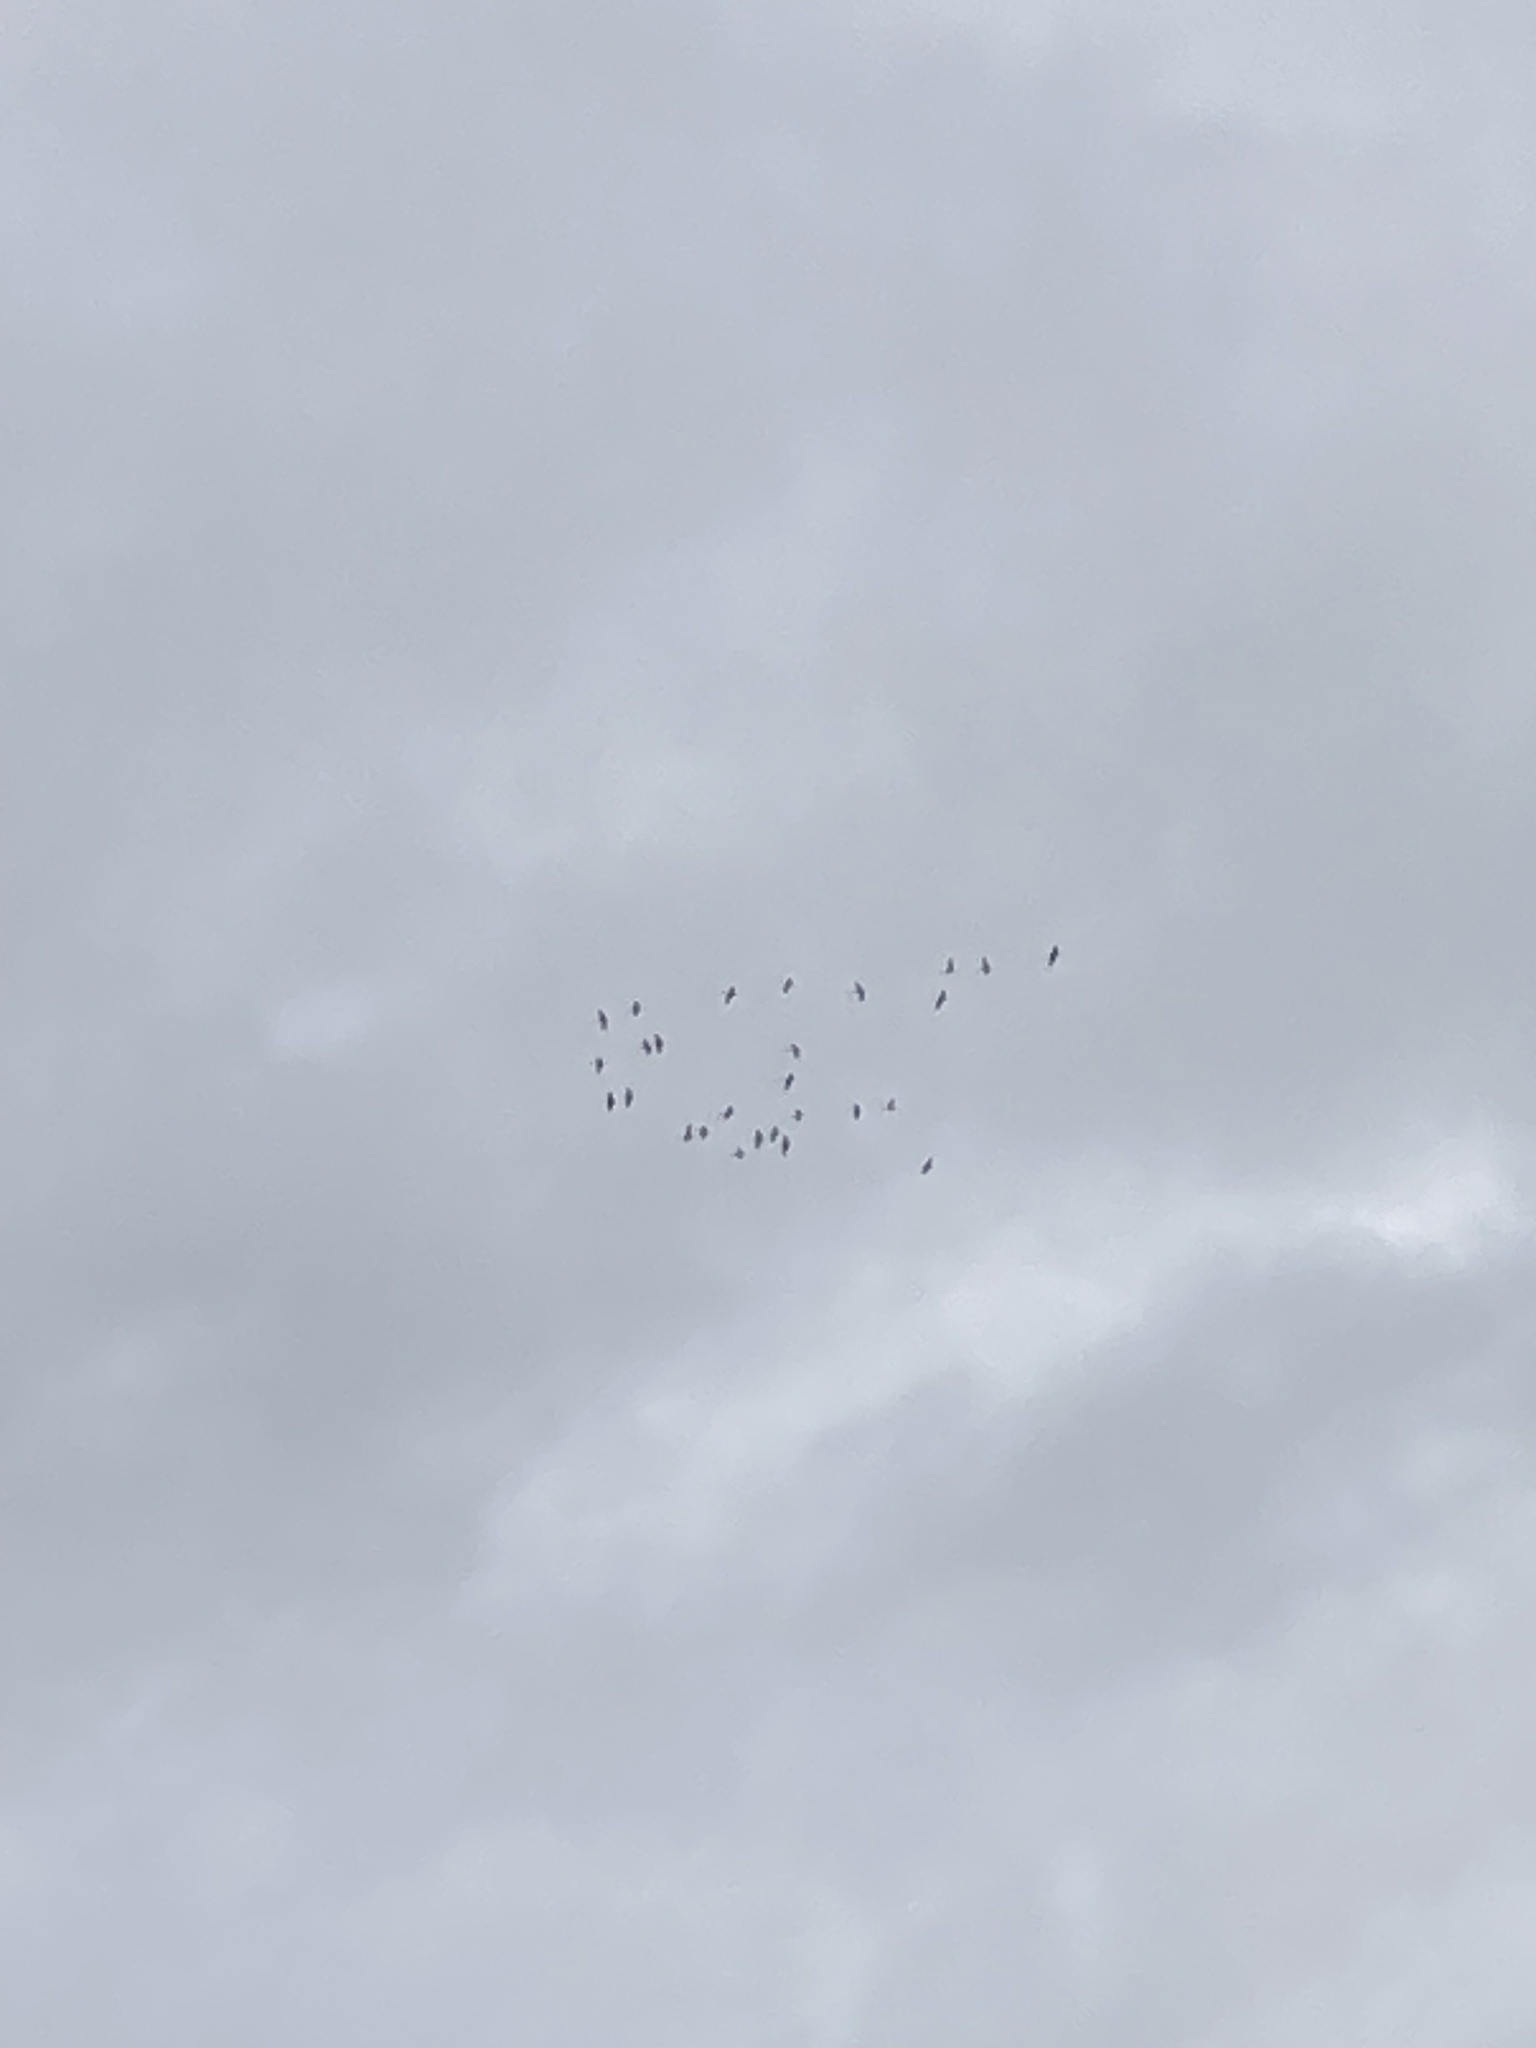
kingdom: Animalia
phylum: Chordata
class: Aves
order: Gruiformes
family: Gruidae
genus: Grus
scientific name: Grus grus
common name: Common crane
